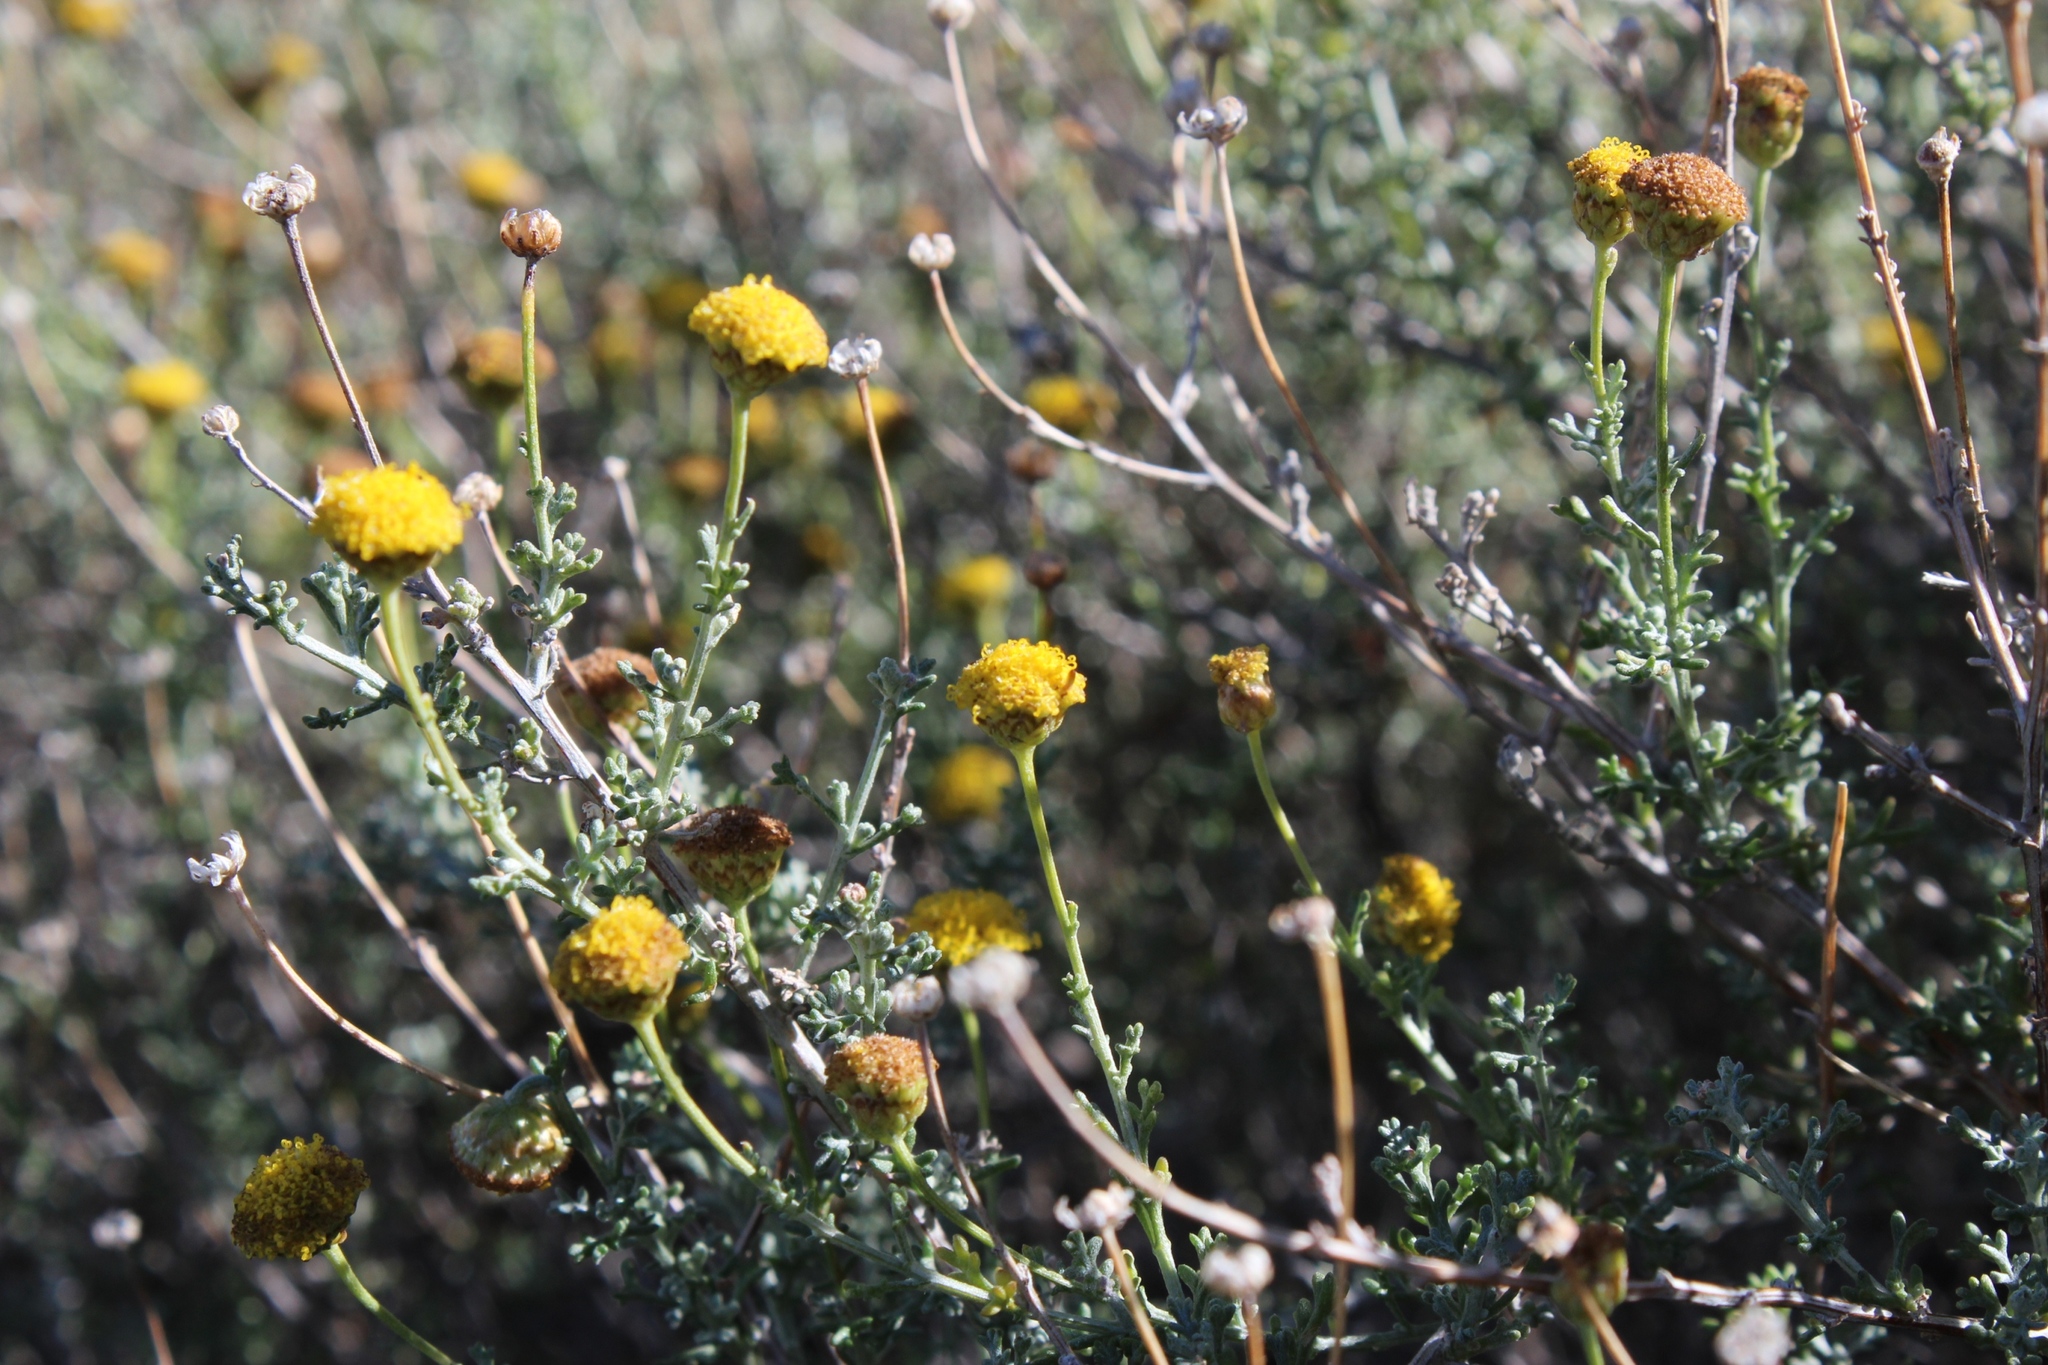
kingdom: Plantae
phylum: Tracheophyta
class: Magnoliopsida
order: Asterales
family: Asteraceae
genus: Pentzia
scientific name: Pentzia incana
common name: African sheepbush
